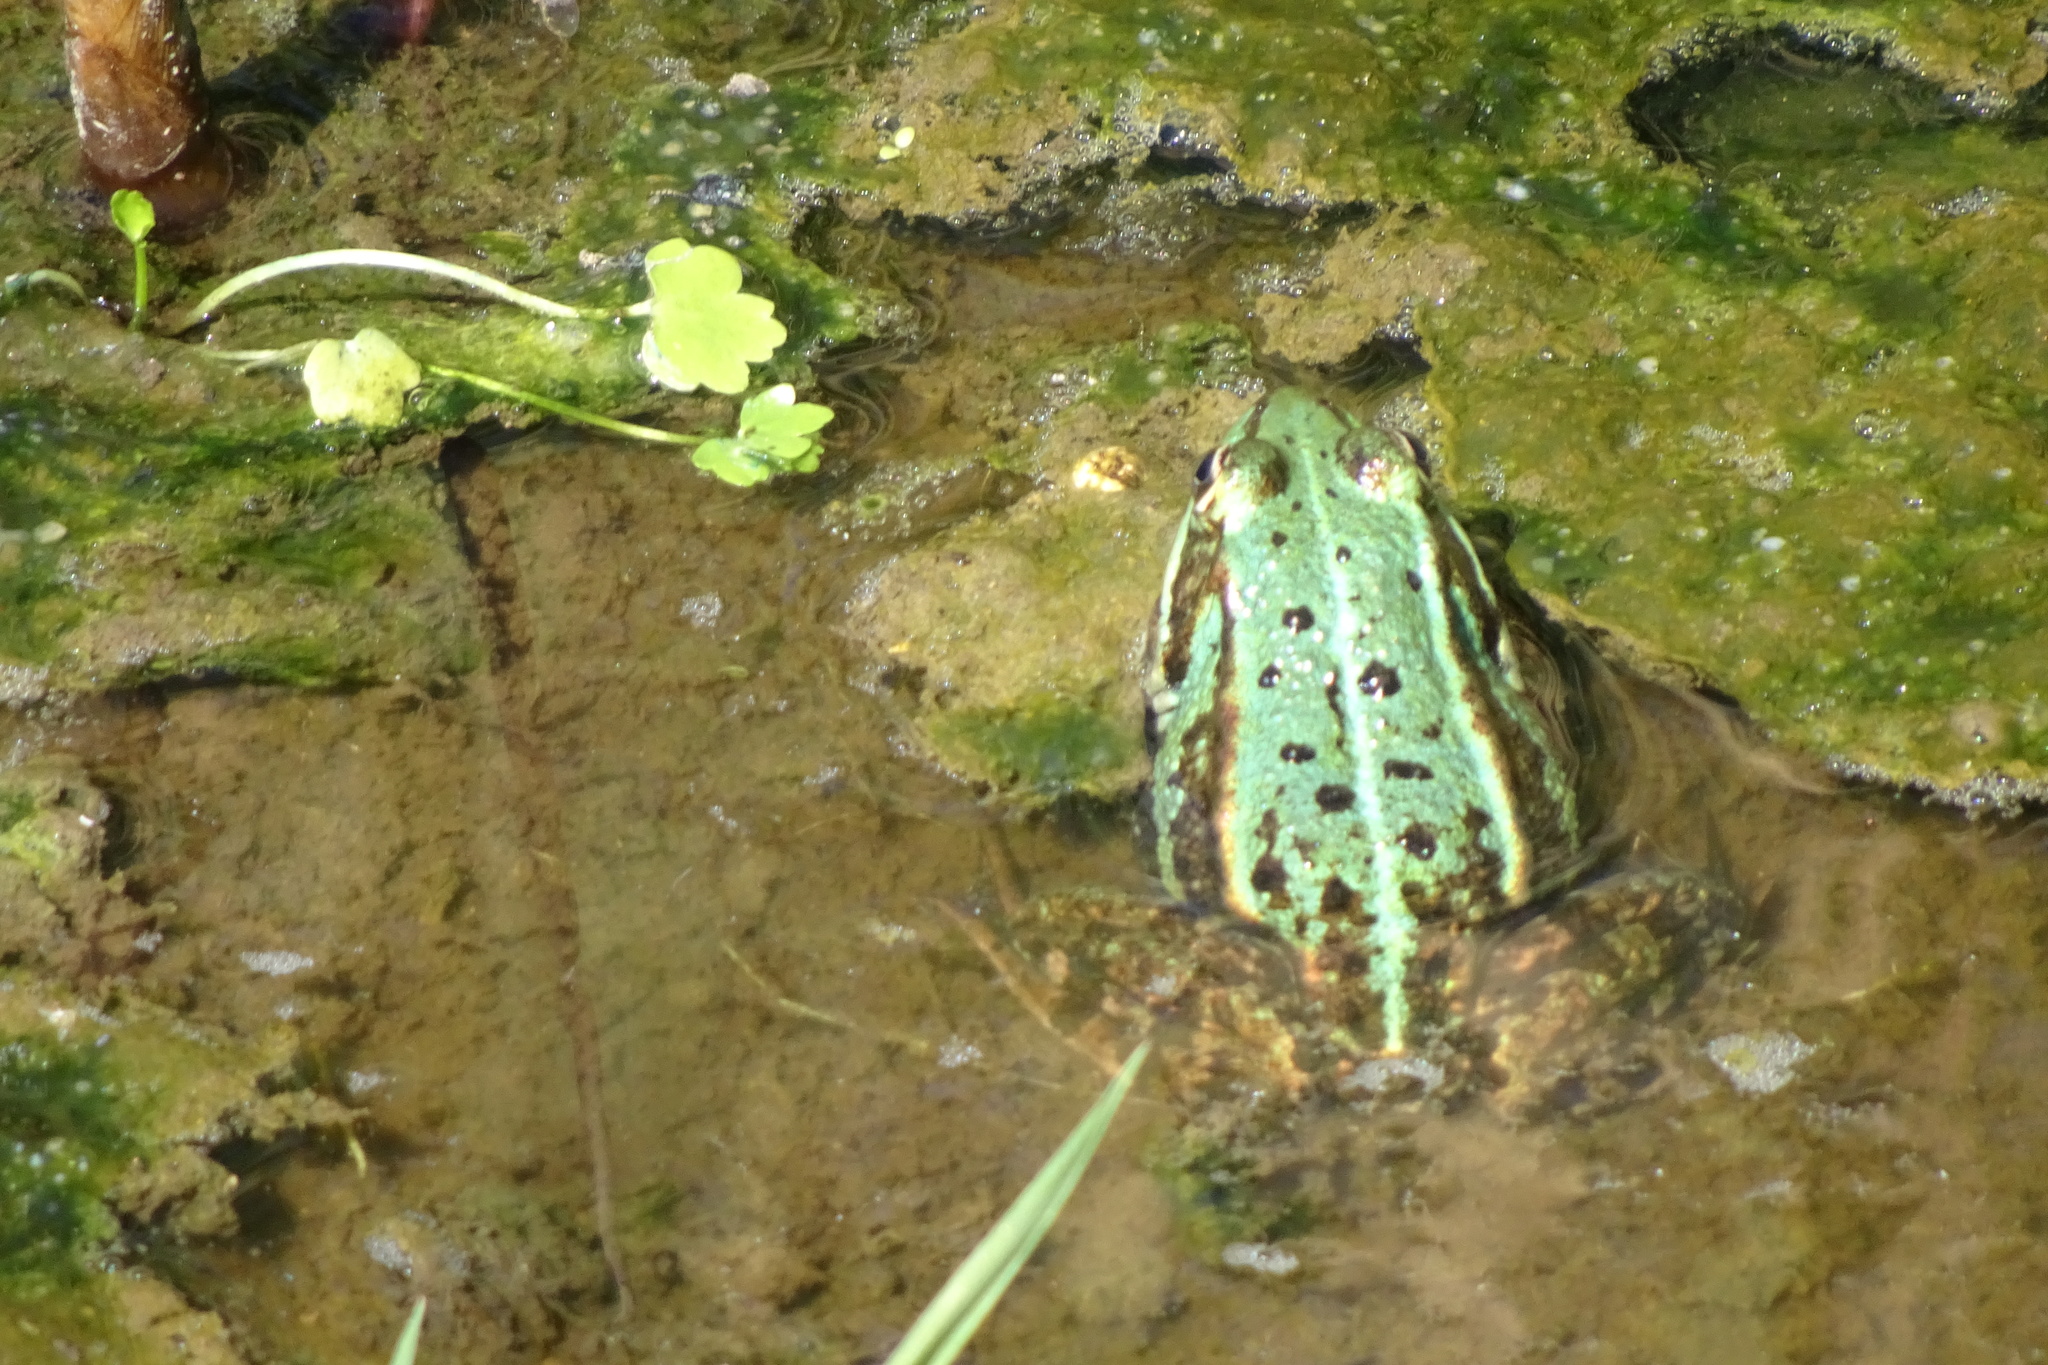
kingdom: Animalia
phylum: Chordata
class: Amphibia
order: Anura
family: Ranidae
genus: Pelophylax
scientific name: Pelophylax
